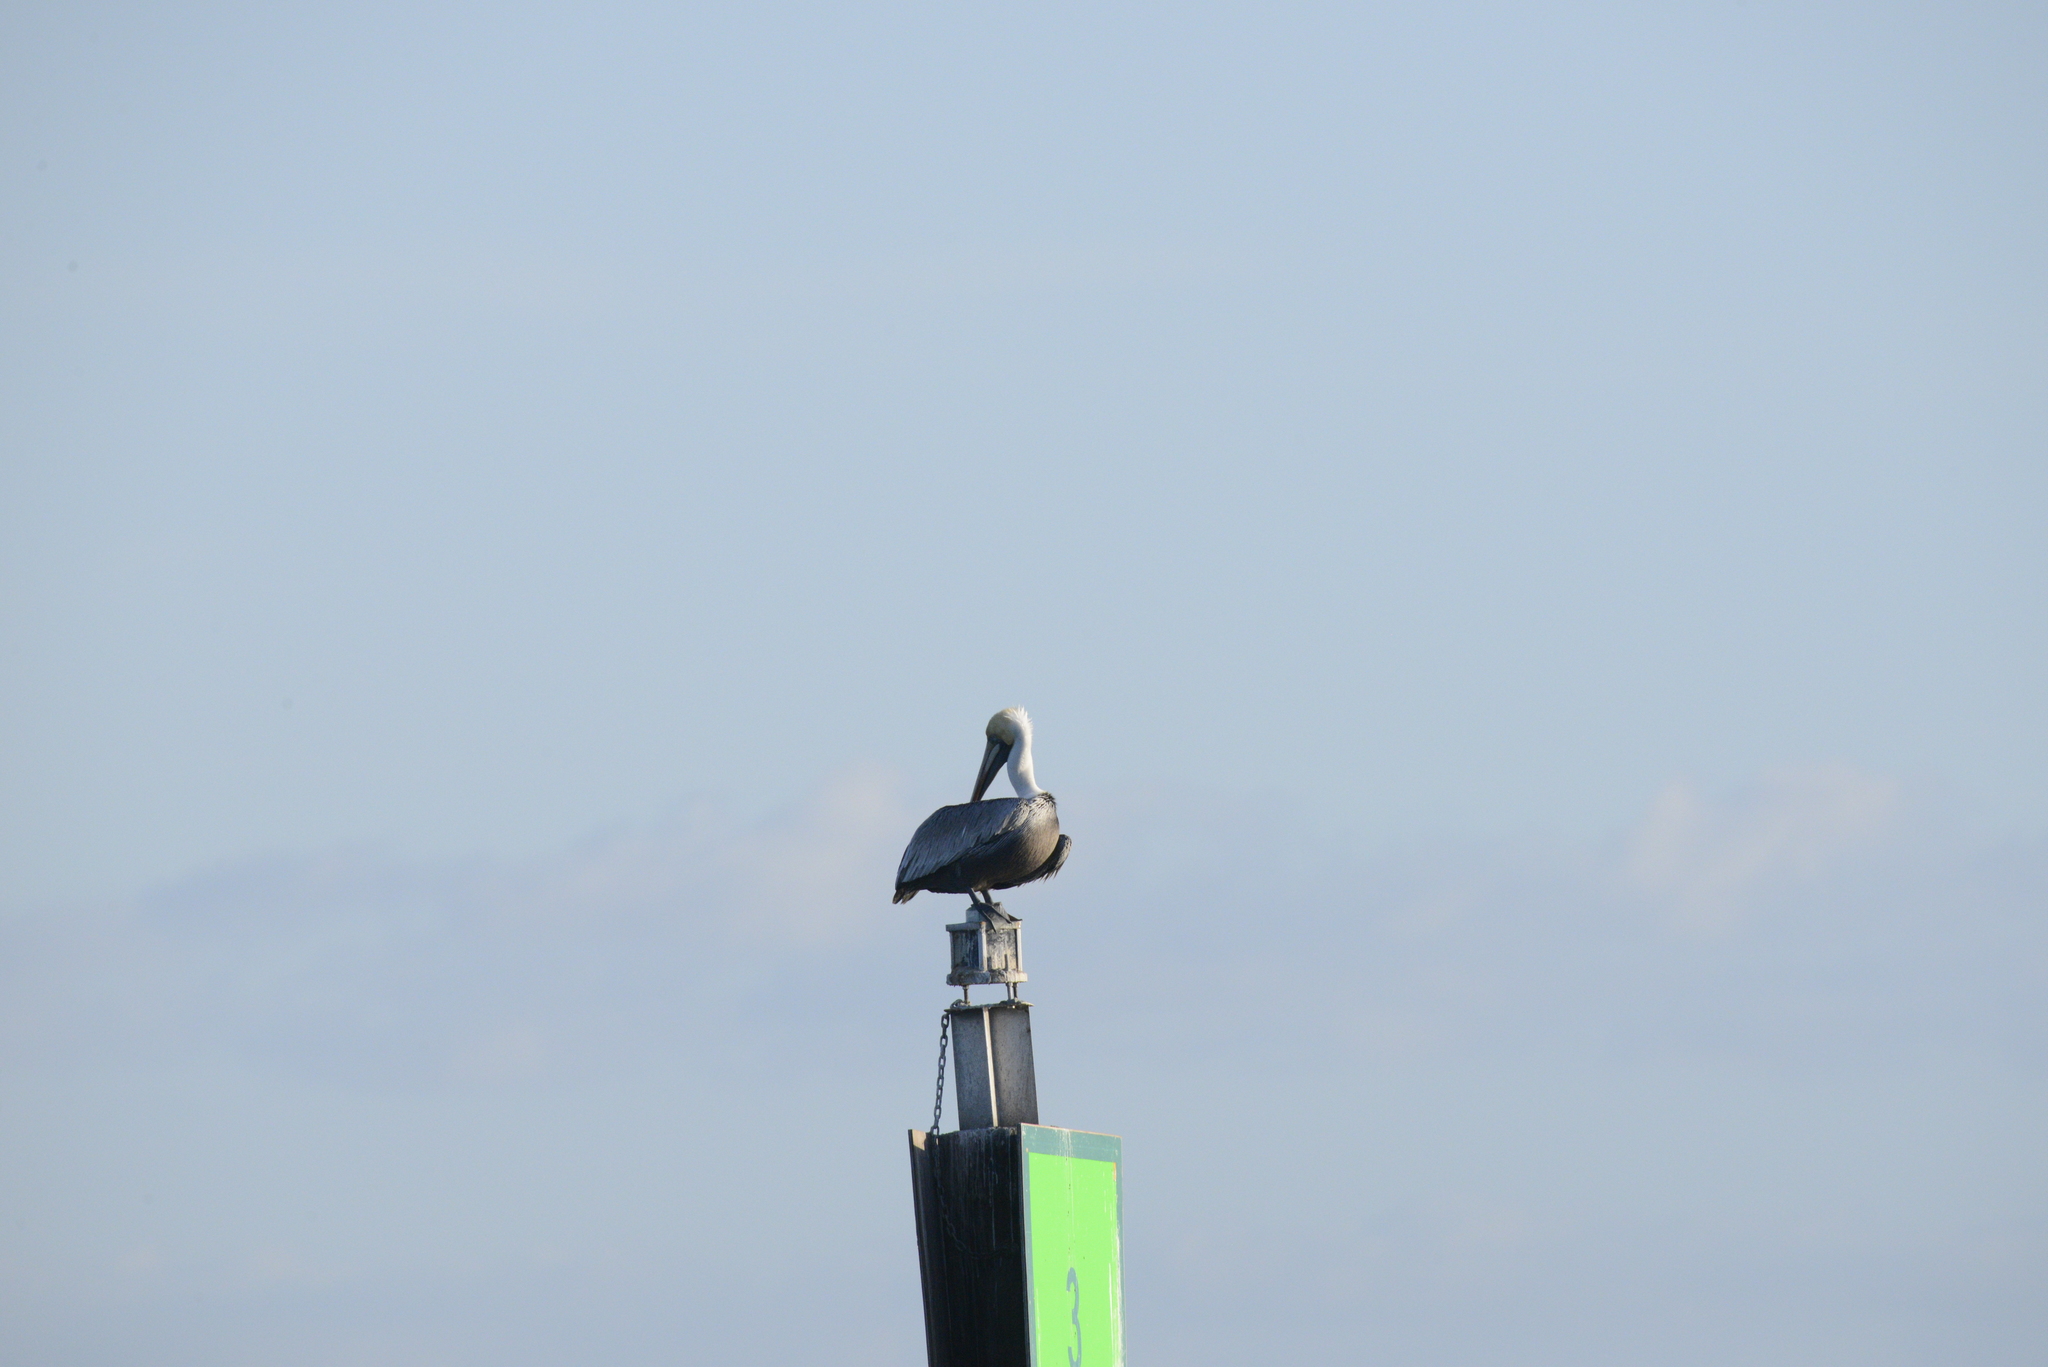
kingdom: Animalia
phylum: Chordata
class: Aves
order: Pelecaniformes
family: Pelecanidae
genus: Pelecanus
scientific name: Pelecanus occidentalis
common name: Brown pelican
